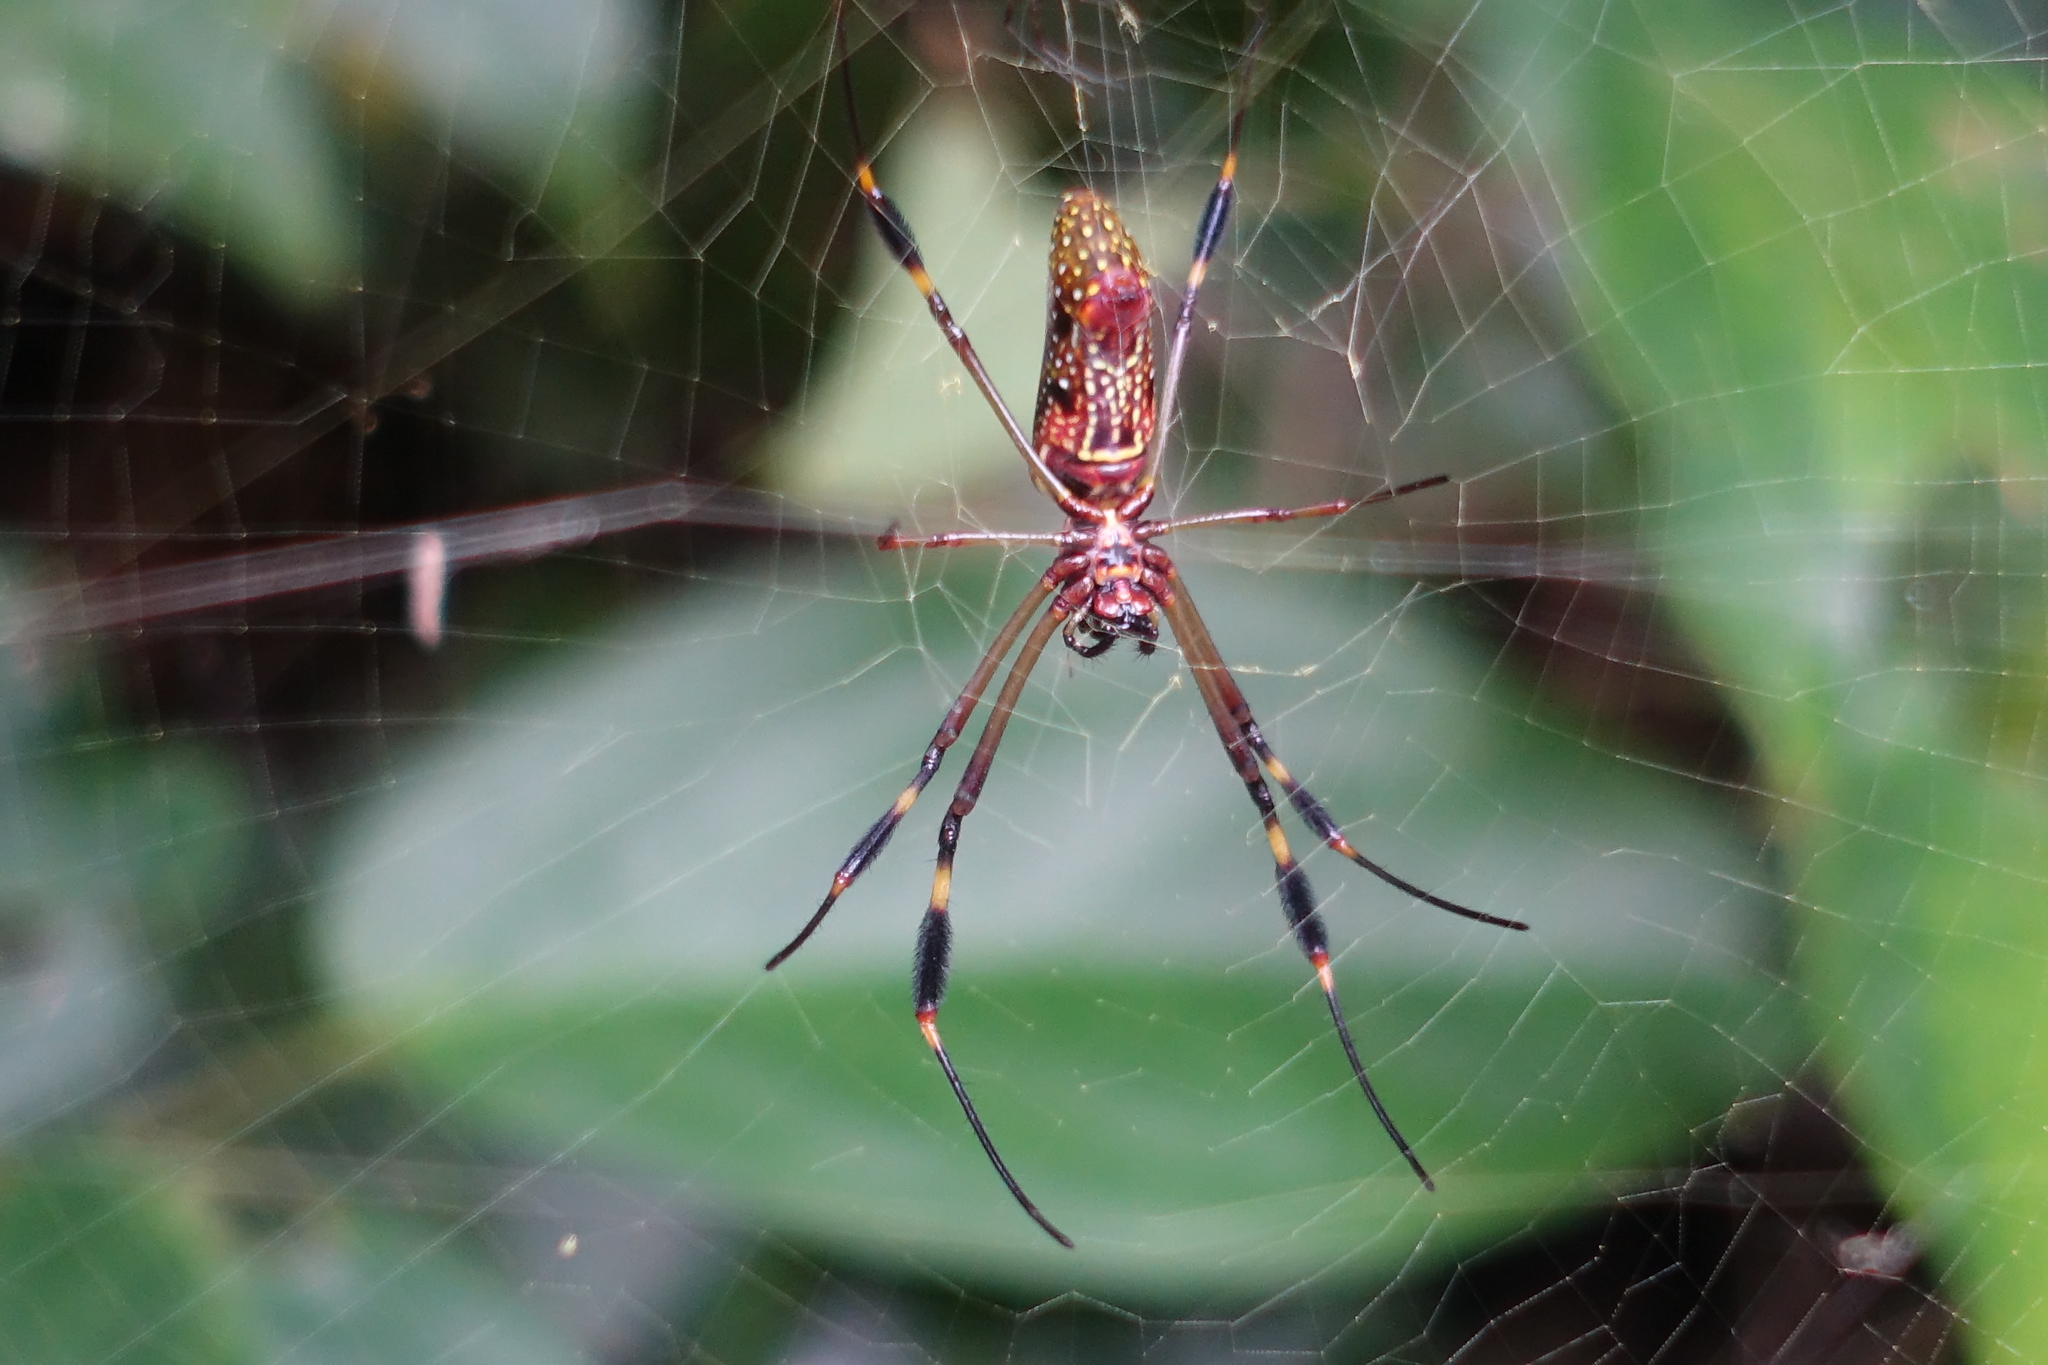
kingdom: Animalia
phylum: Arthropoda
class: Arachnida
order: Araneae
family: Araneidae
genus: Trichonephila
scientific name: Trichonephila clavipes
